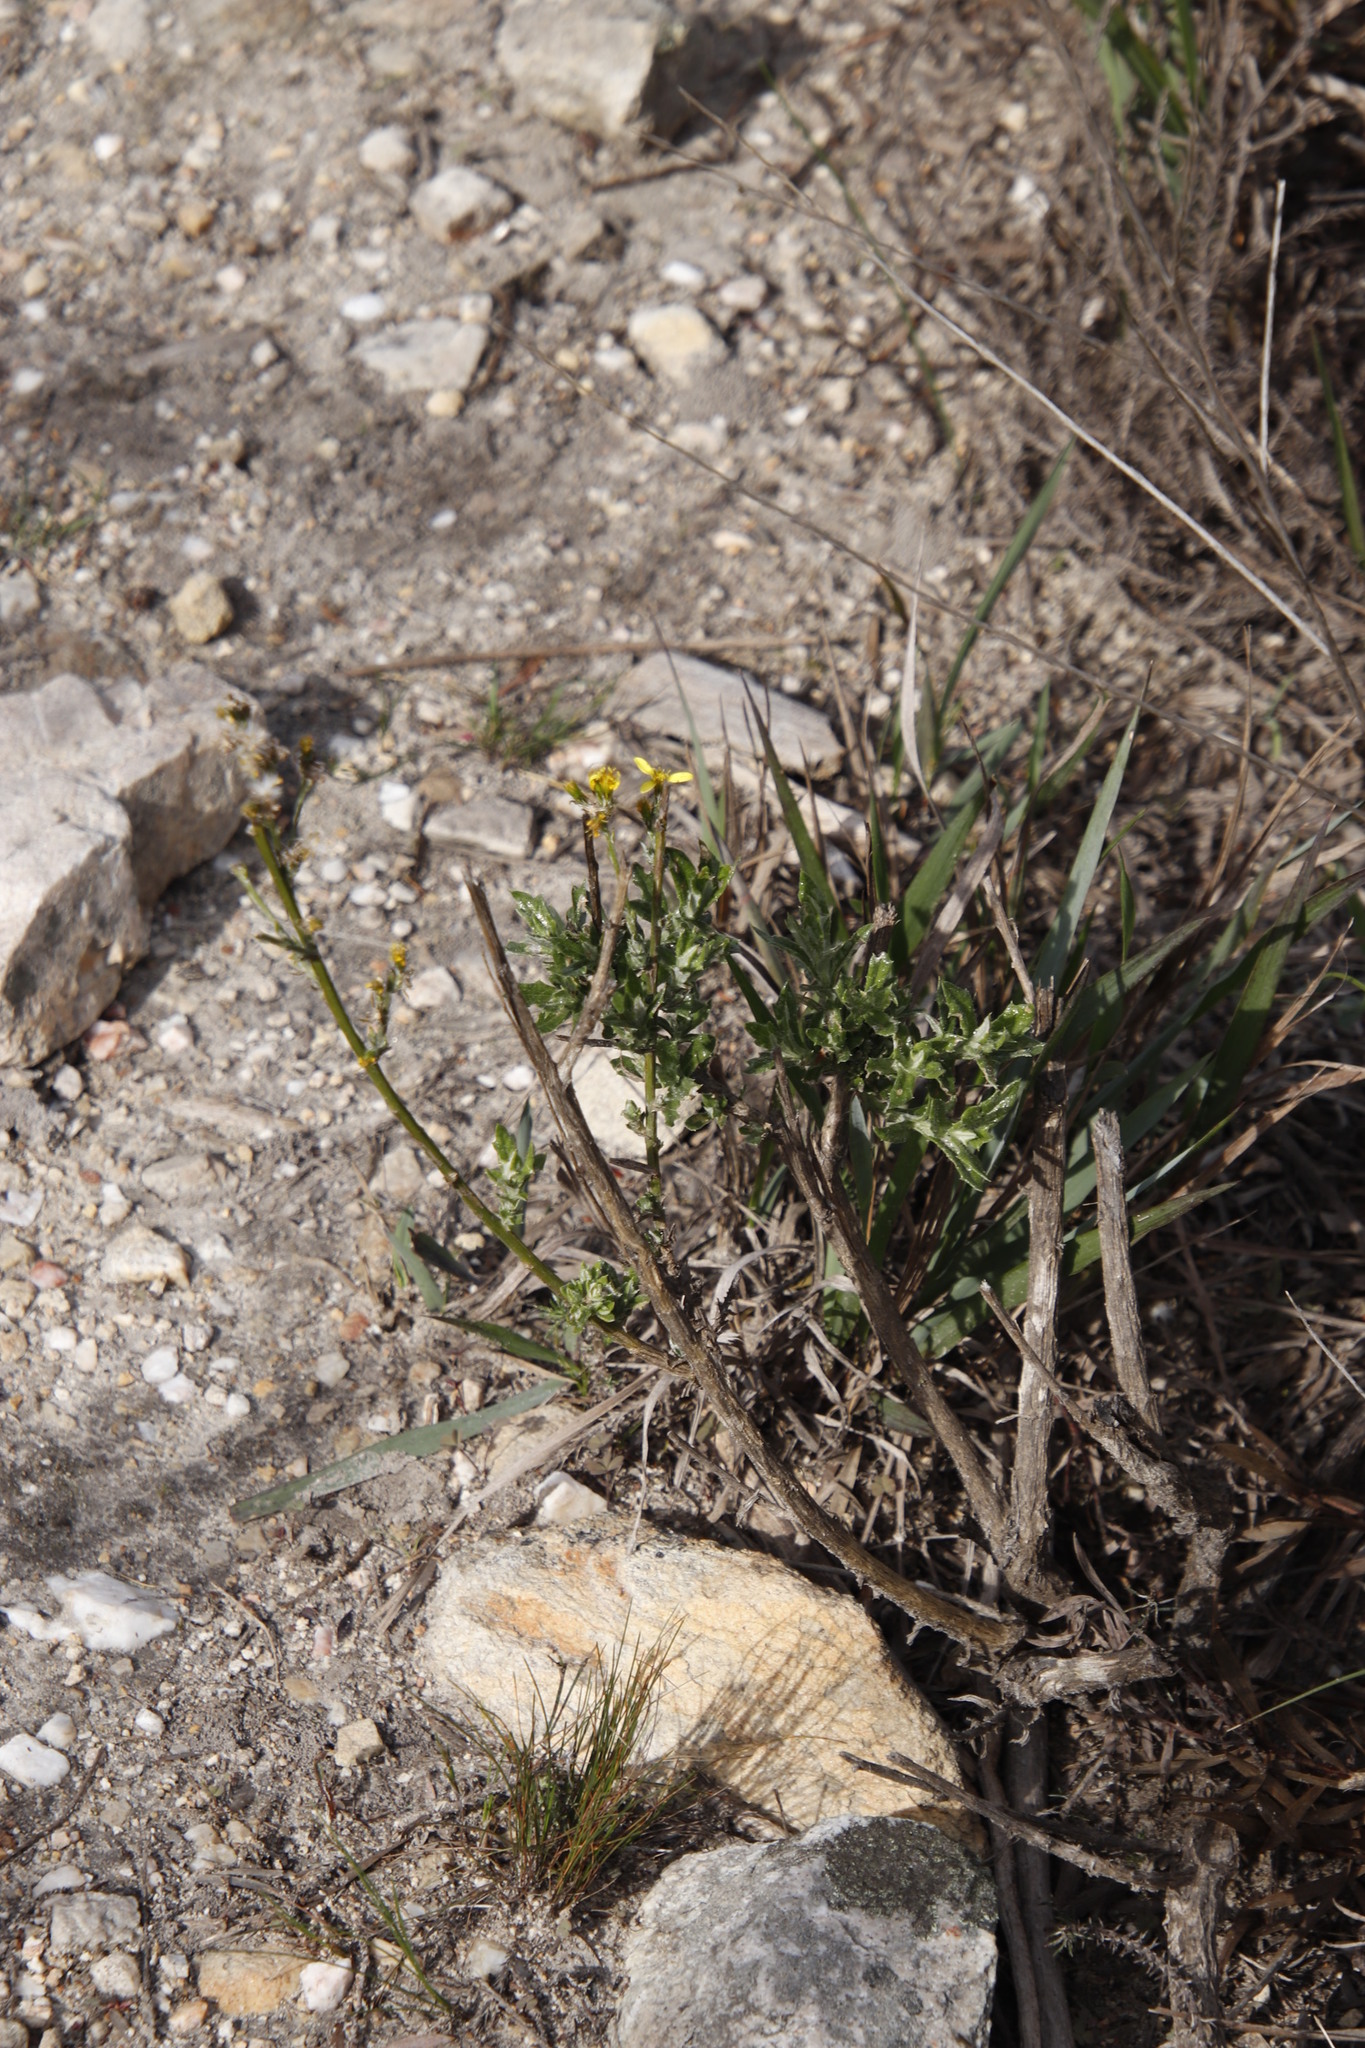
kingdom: Plantae
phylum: Tracheophyta
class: Magnoliopsida
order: Asterales
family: Asteraceae
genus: Senecio
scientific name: Senecio pubigerus
